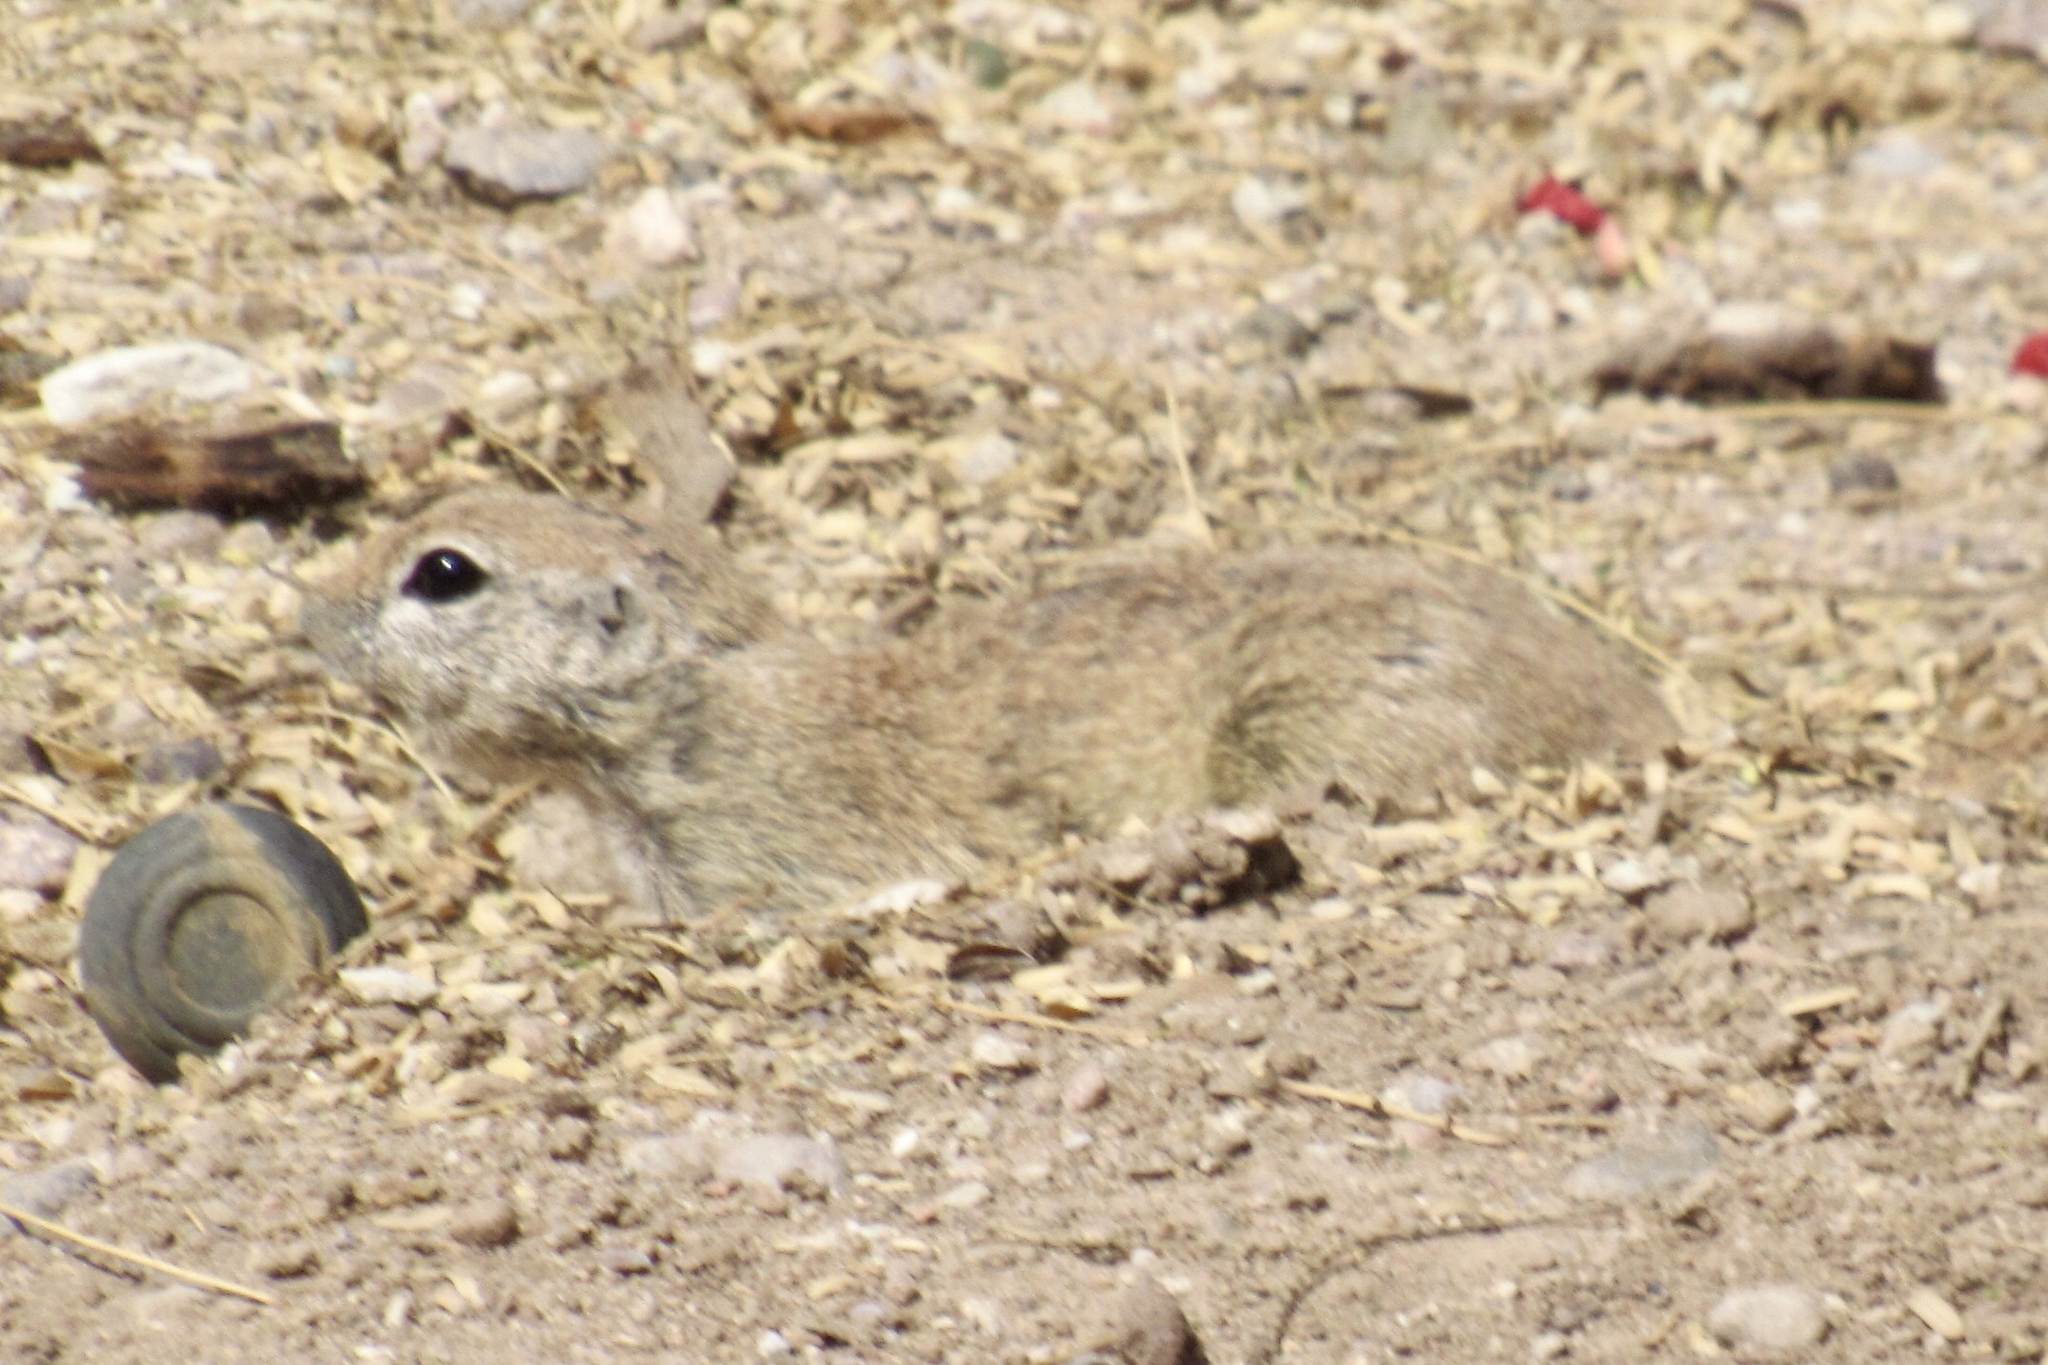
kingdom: Animalia
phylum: Chordata
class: Mammalia
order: Rodentia
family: Sciuridae
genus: Xerospermophilus
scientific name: Xerospermophilus tereticaudus
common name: Round-tailed ground squirrel
